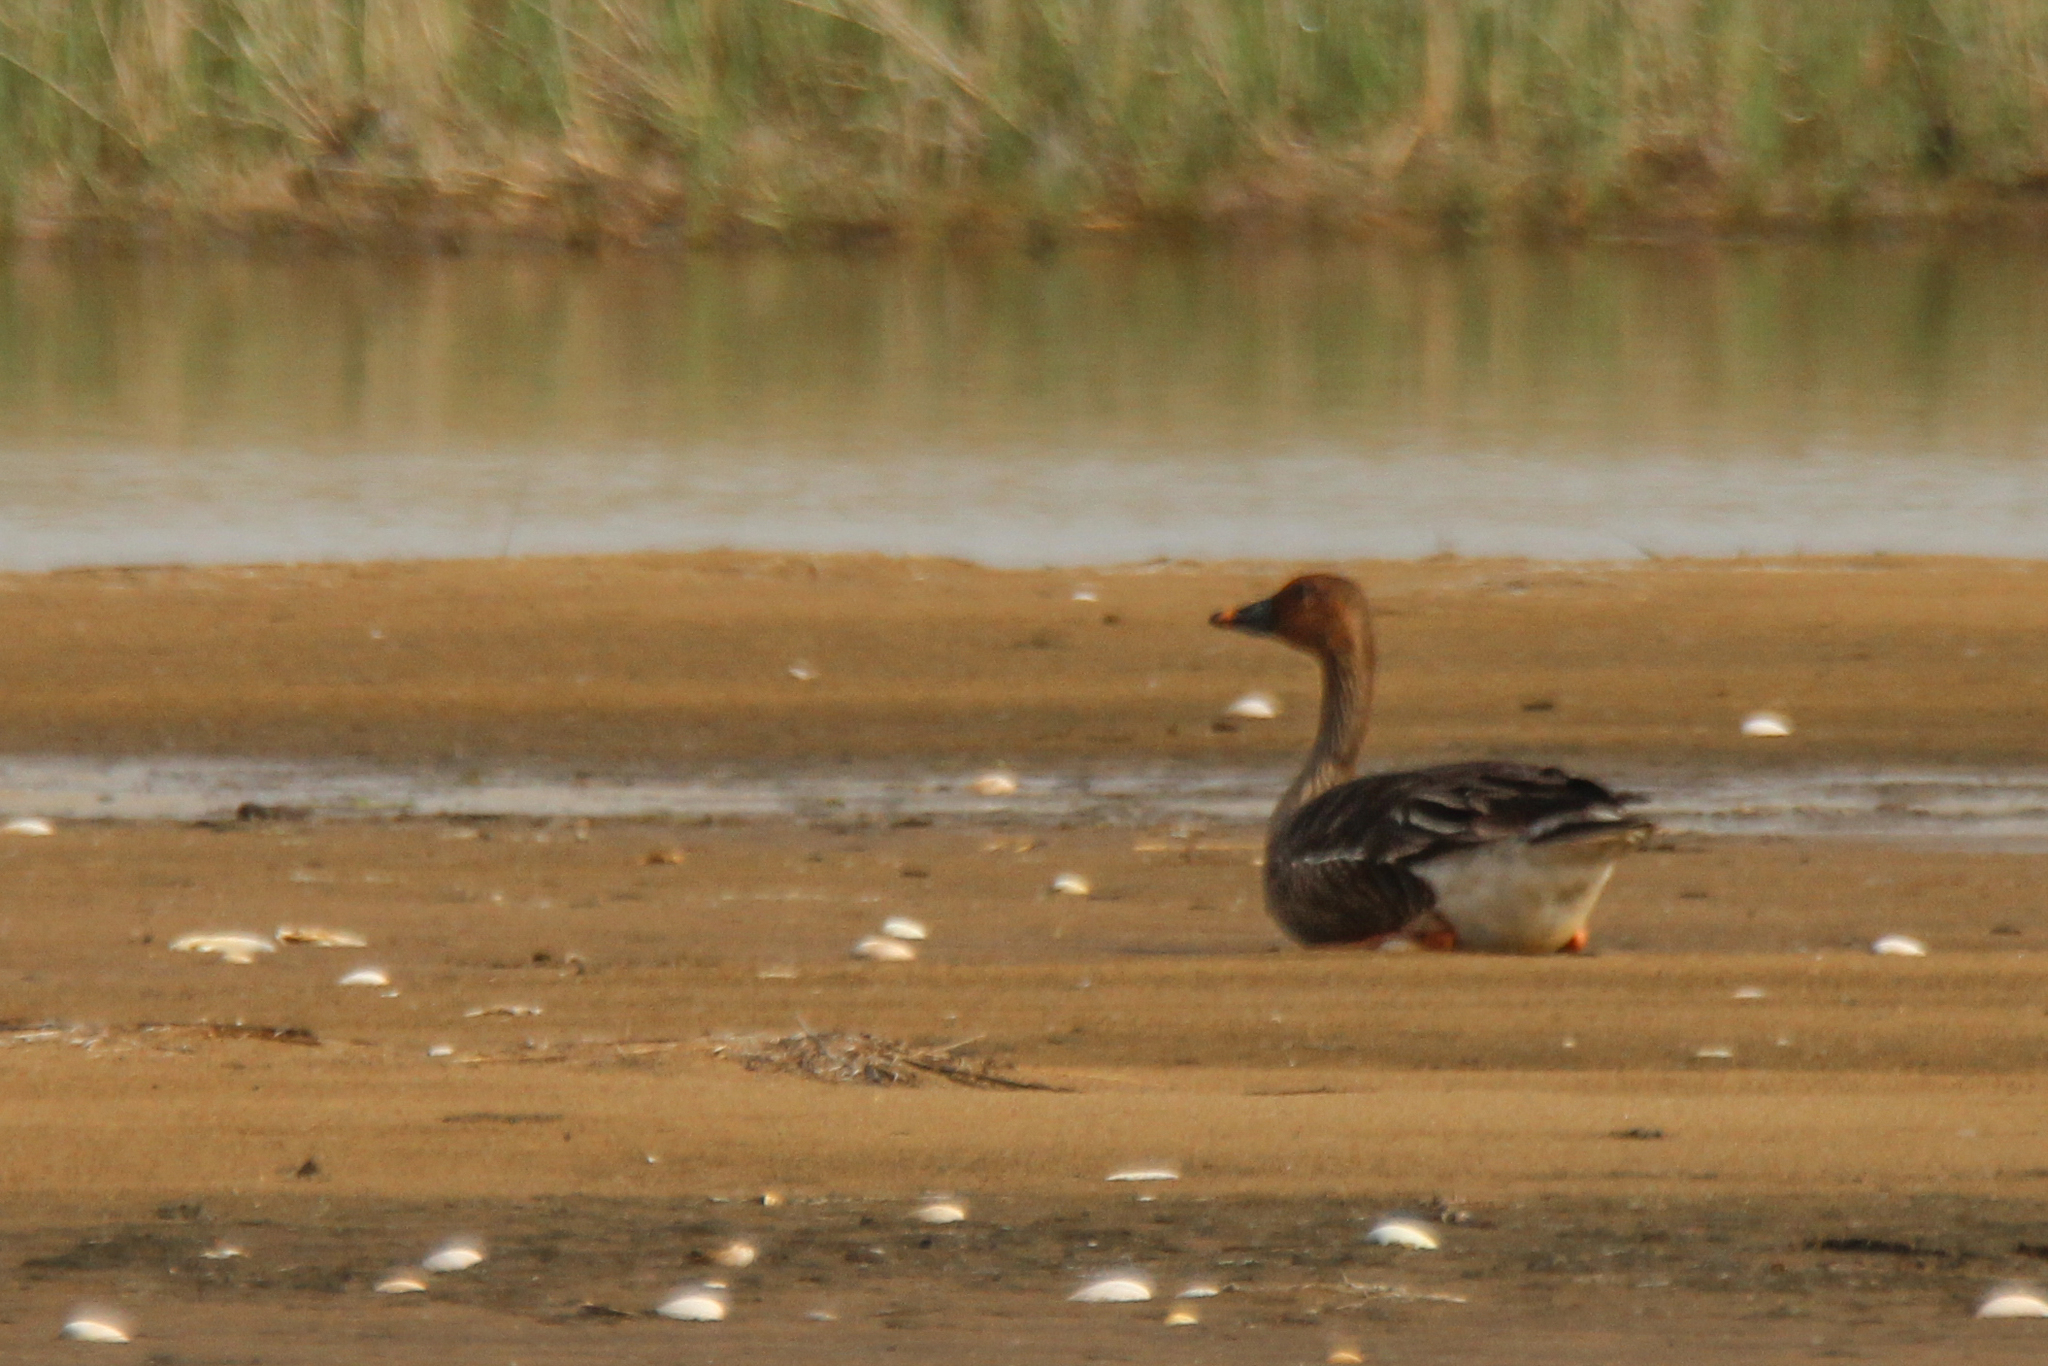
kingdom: Animalia
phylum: Chordata
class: Aves
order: Anseriformes
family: Anatidae
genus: Anser
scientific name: Anser serrirostris
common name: Tundra bean goose
